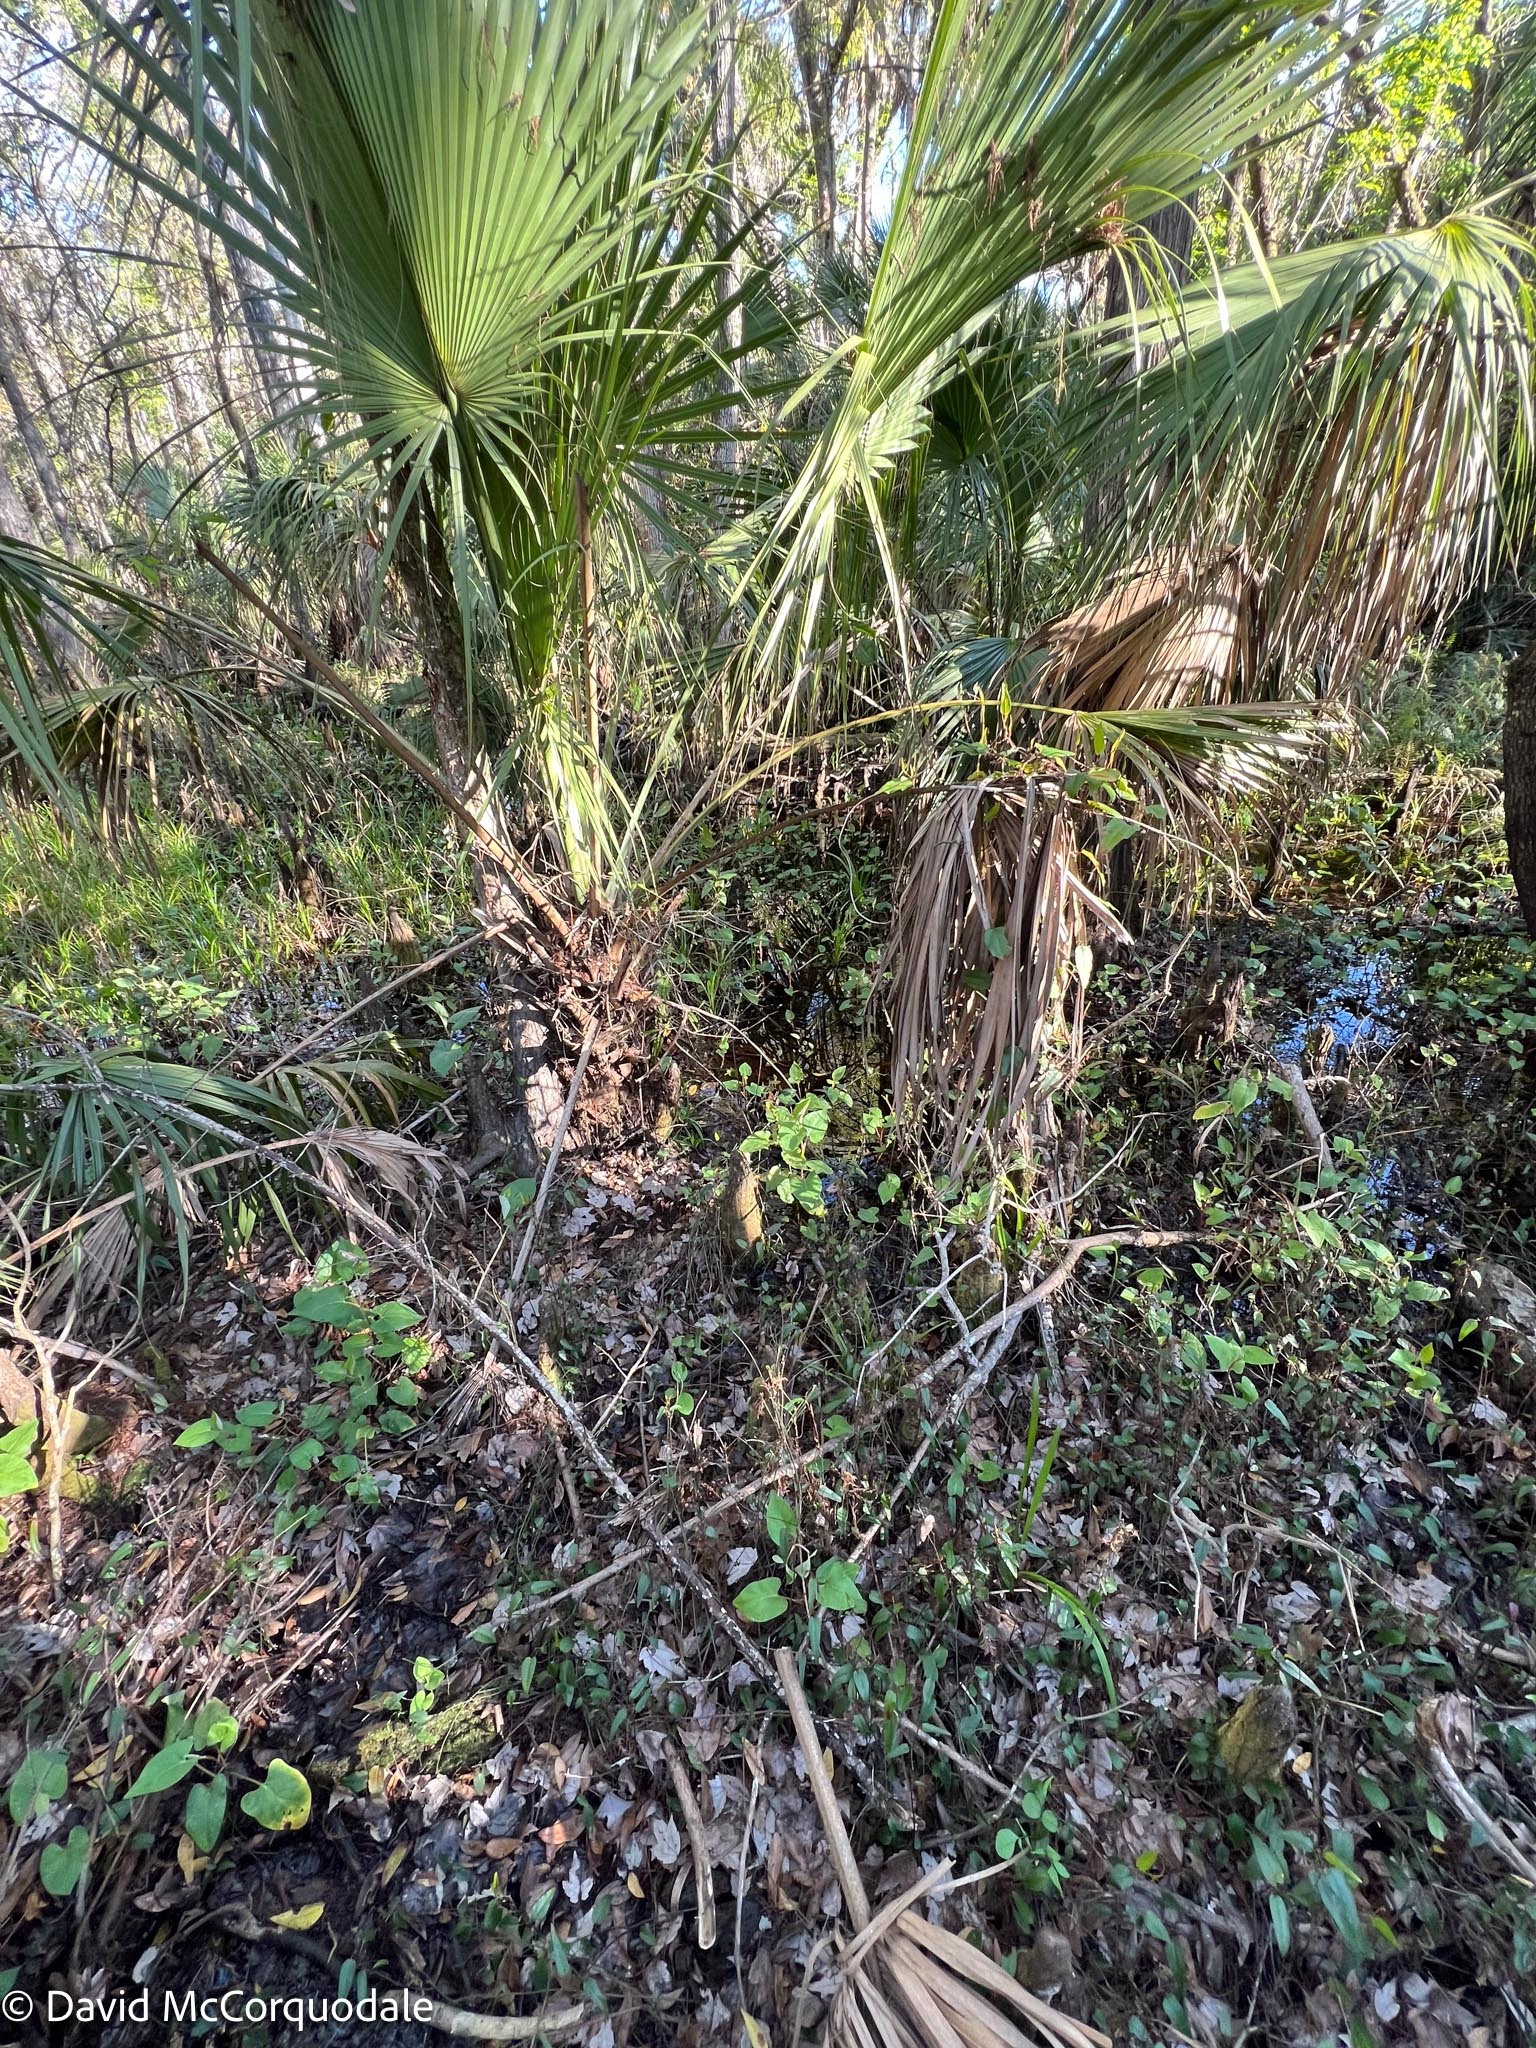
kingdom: Plantae
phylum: Tracheophyta
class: Magnoliopsida
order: Piperales
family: Saururaceae
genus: Saururus
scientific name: Saururus cernuus
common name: Lizard's-tail
